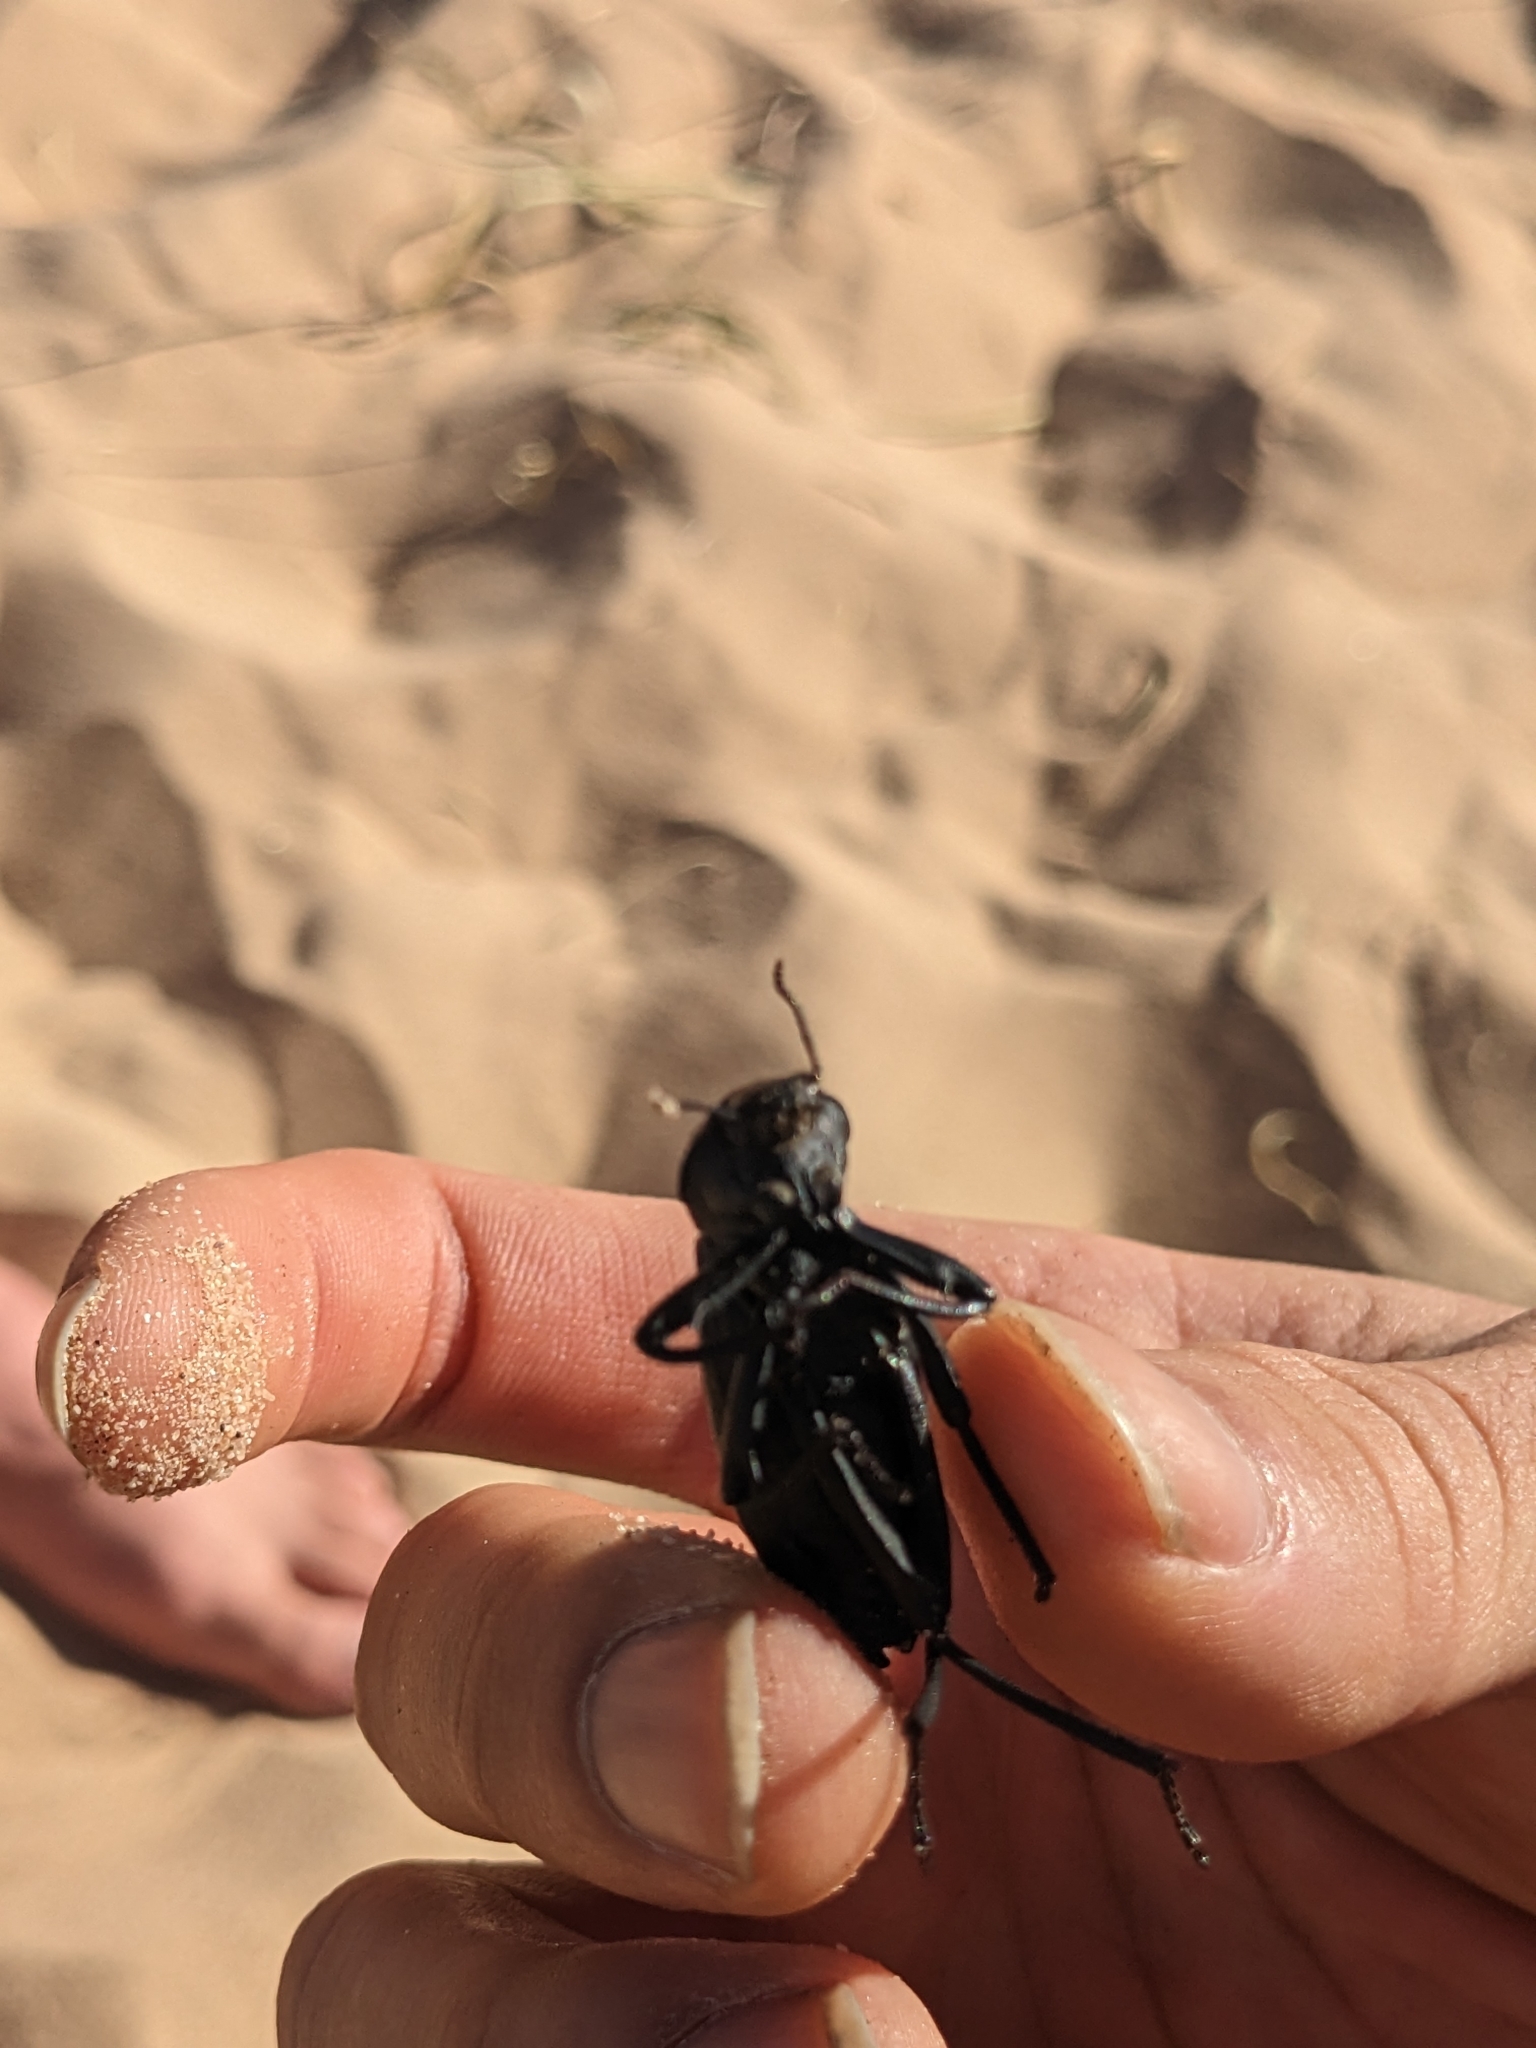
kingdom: Animalia
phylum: Arthropoda
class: Insecta
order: Coleoptera
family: Tenebrionidae
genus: Eleodes
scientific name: Eleodes armata
